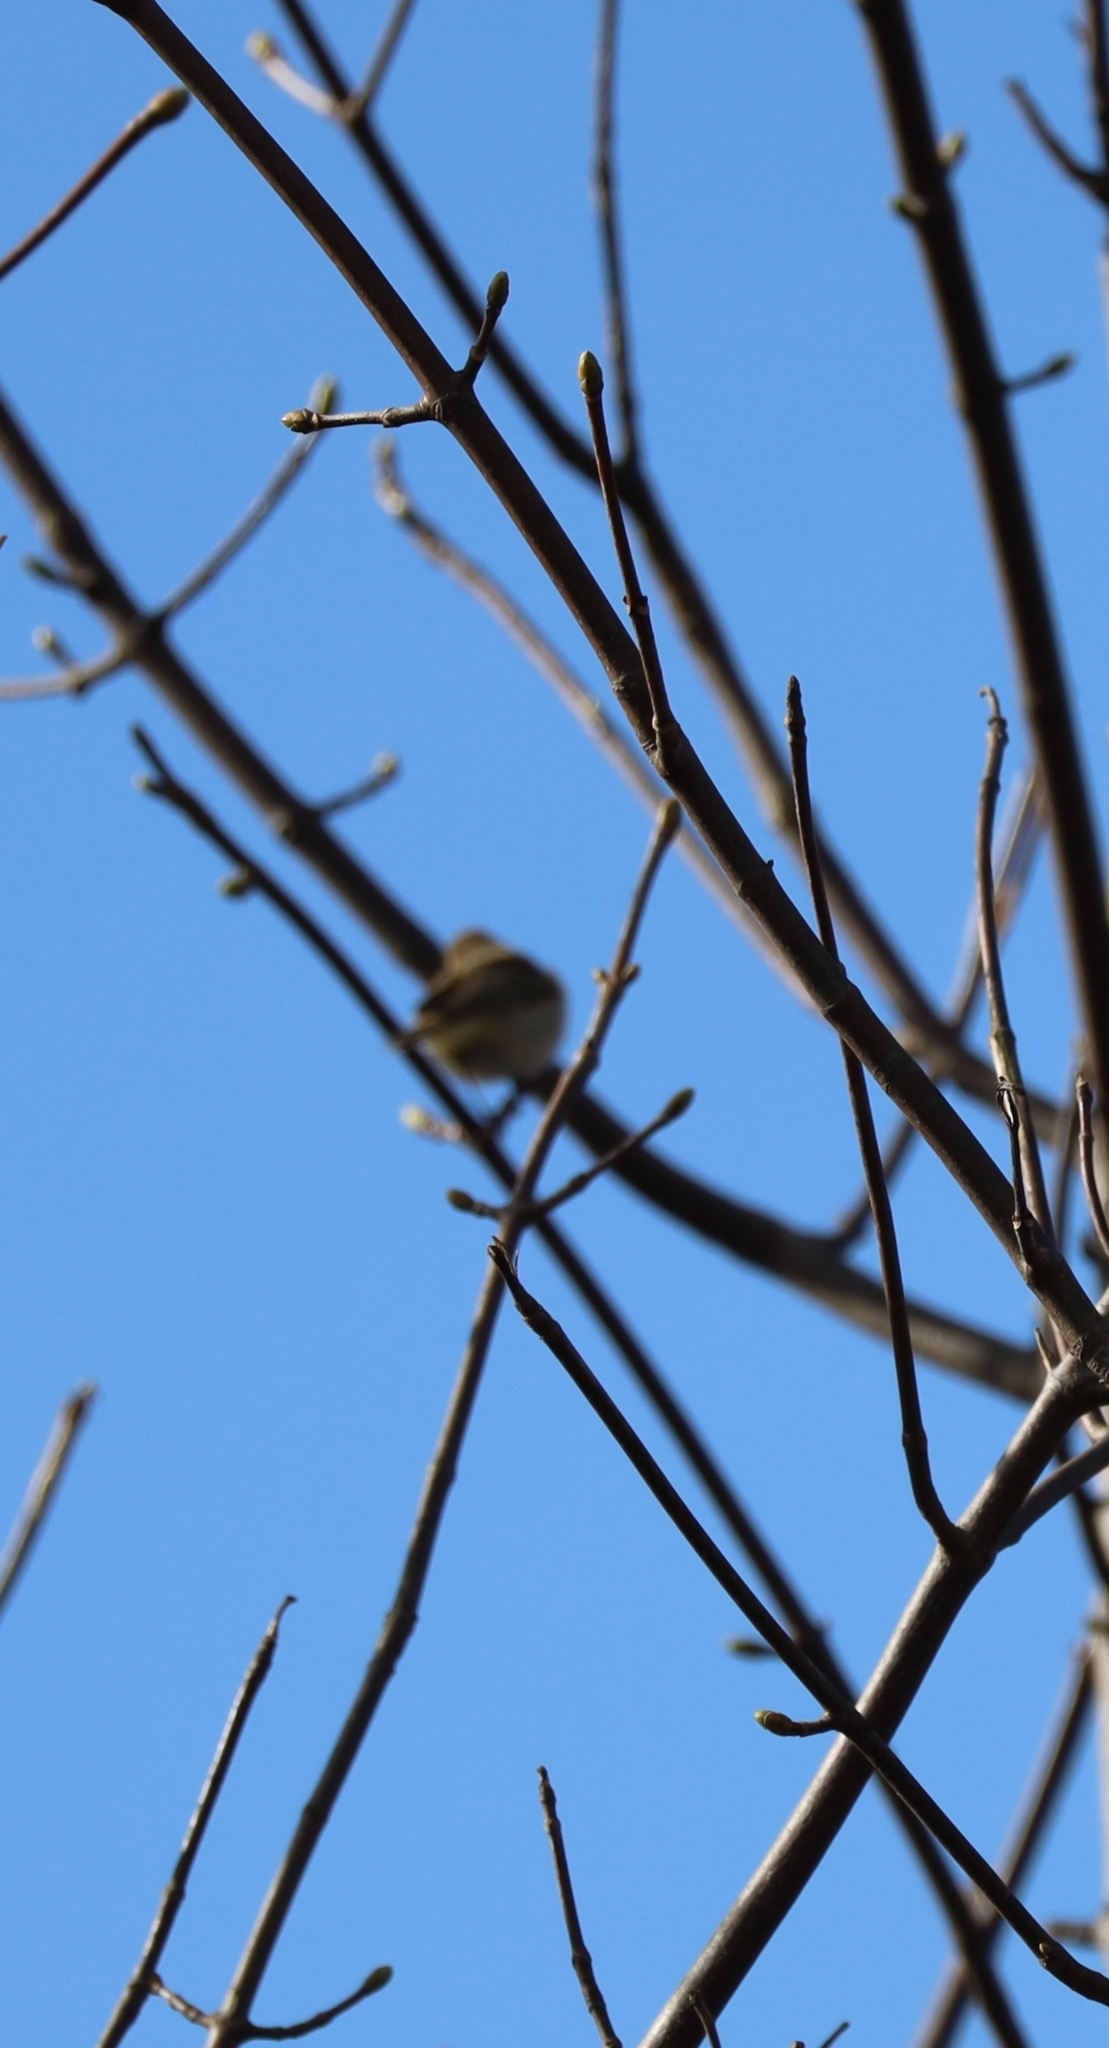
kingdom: Animalia
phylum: Chordata
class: Aves
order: Passeriformes
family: Phylloscopidae
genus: Phylloscopus
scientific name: Phylloscopus collybita
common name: Common chiffchaff
